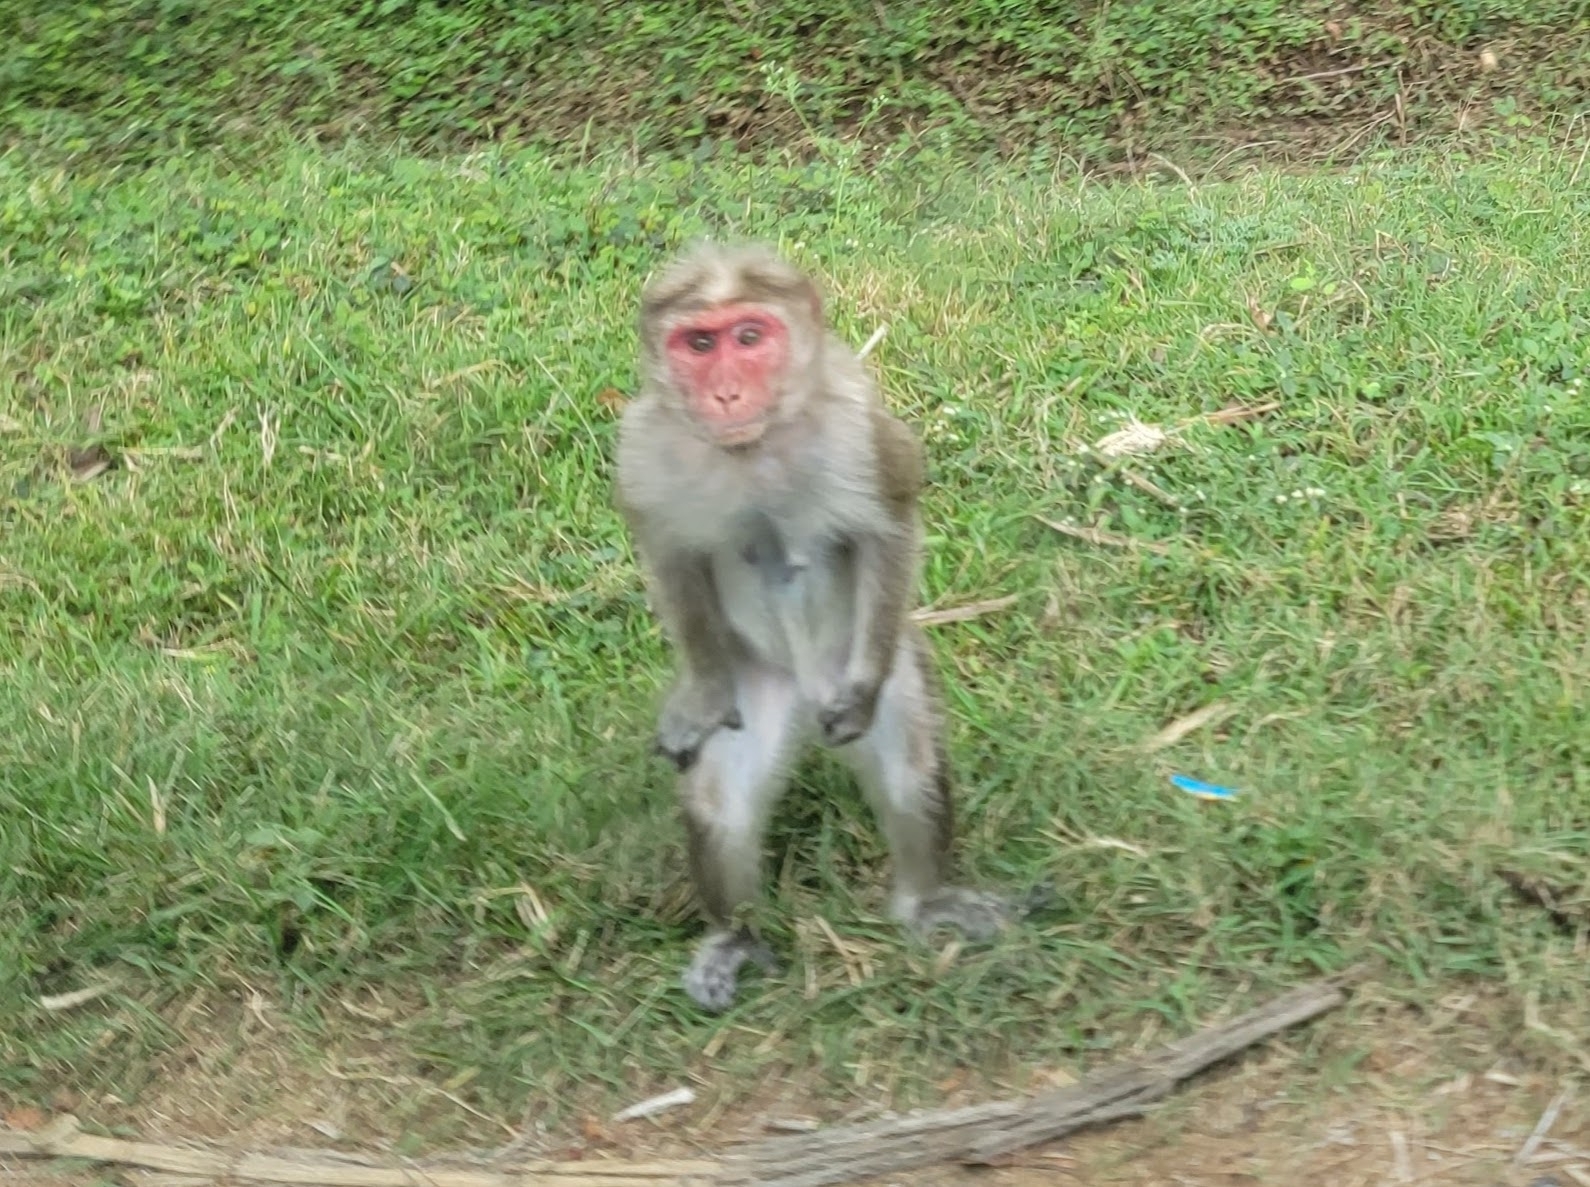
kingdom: Animalia
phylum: Chordata
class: Mammalia
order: Primates
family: Cercopithecidae
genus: Macaca
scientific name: Macaca radiata
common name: Bonnet macaque
